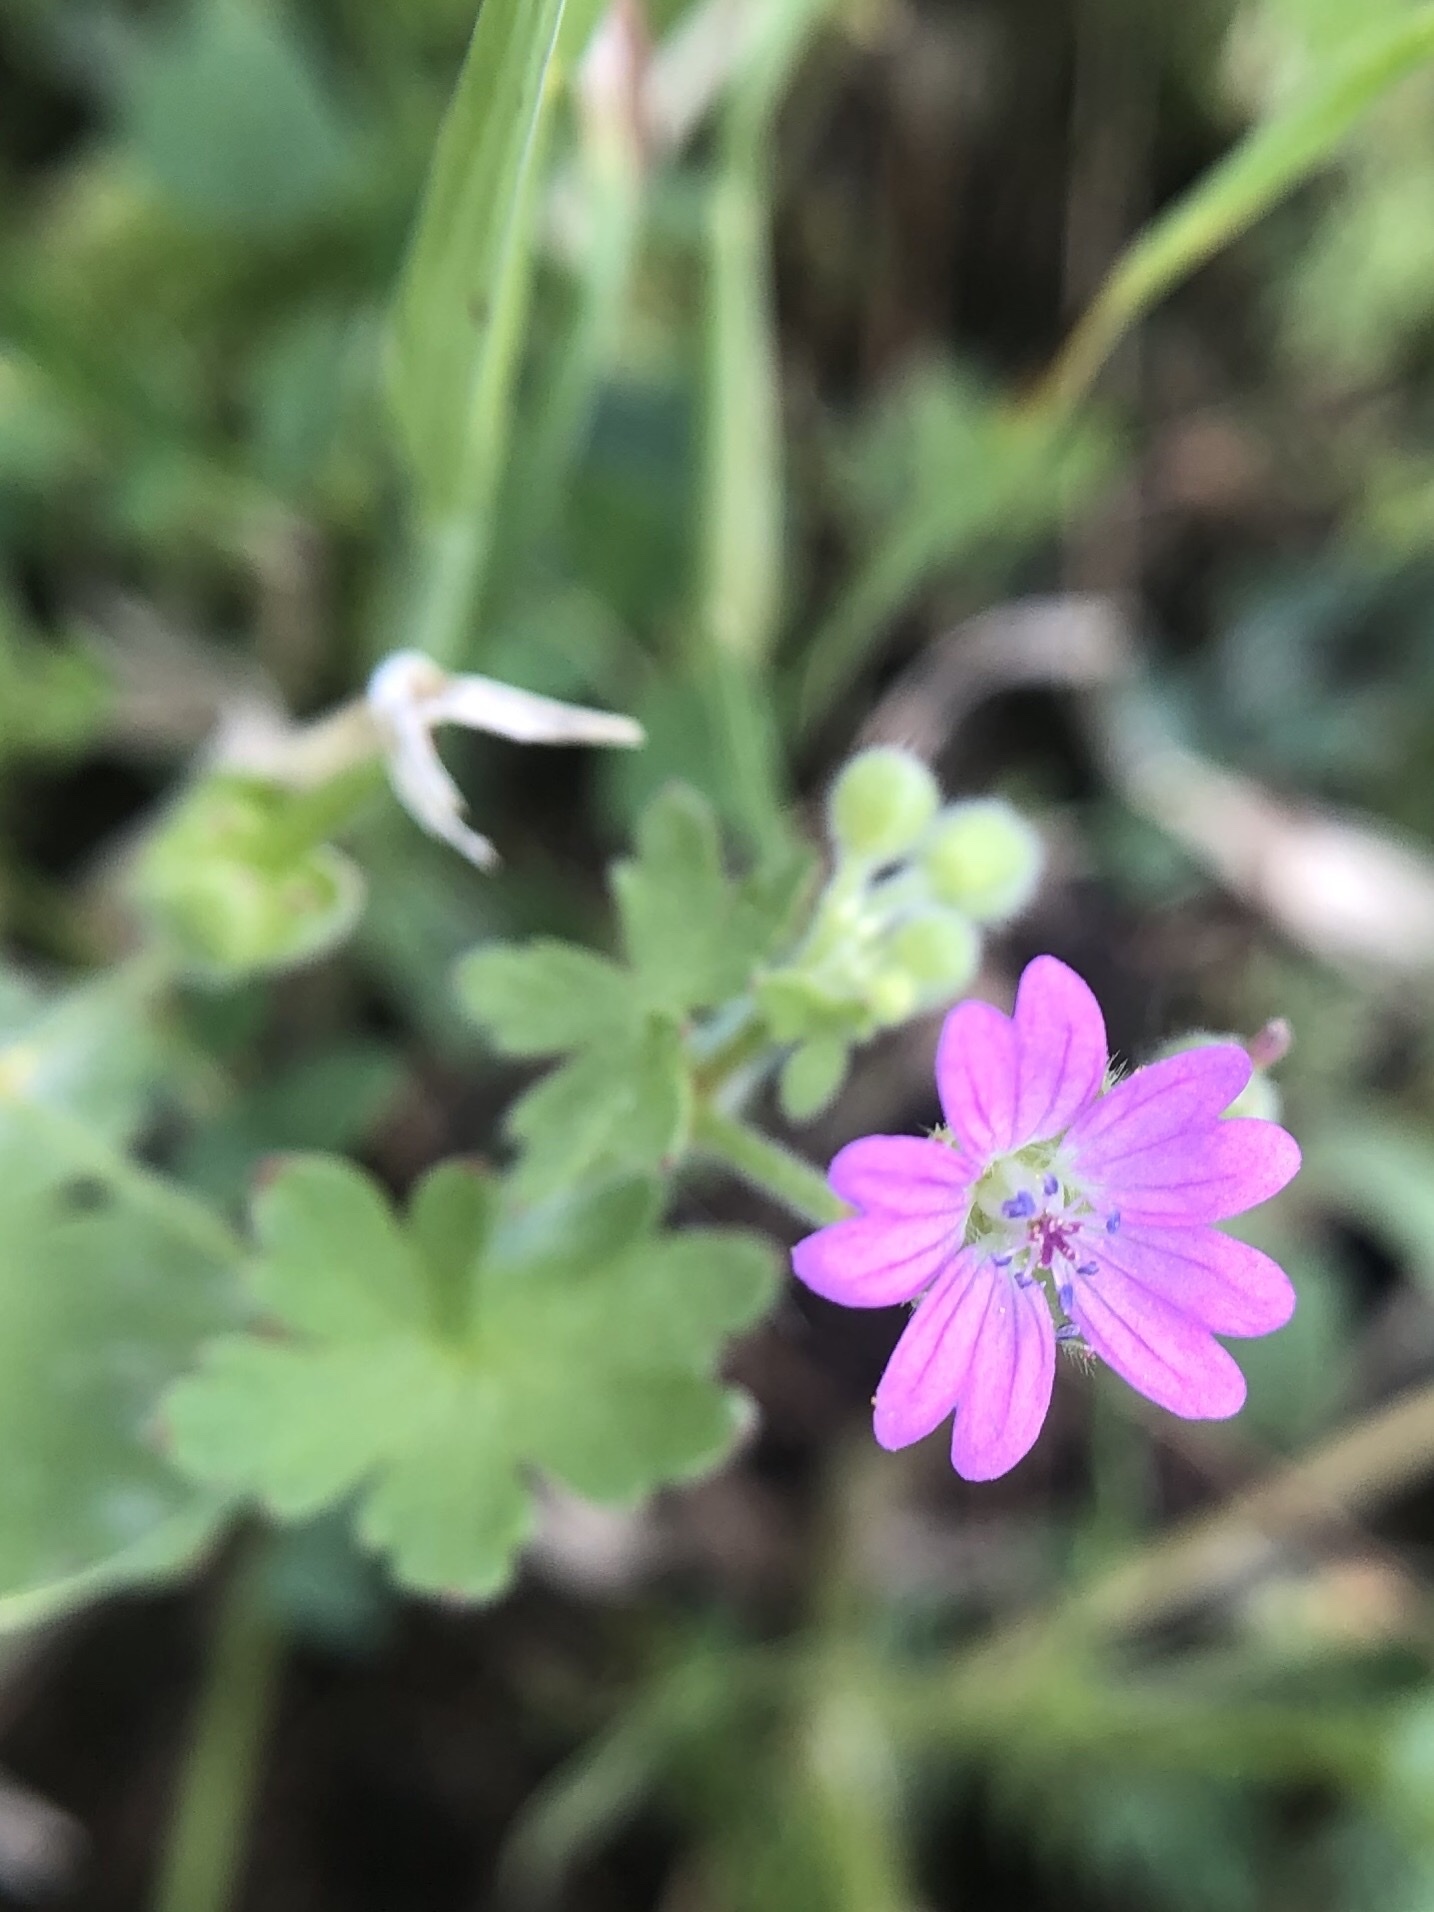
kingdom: Plantae
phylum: Tracheophyta
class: Magnoliopsida
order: Geraniales
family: Geraniaceae
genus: Geranium
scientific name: Geranium molle
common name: Dove's-foot crane's-bill
